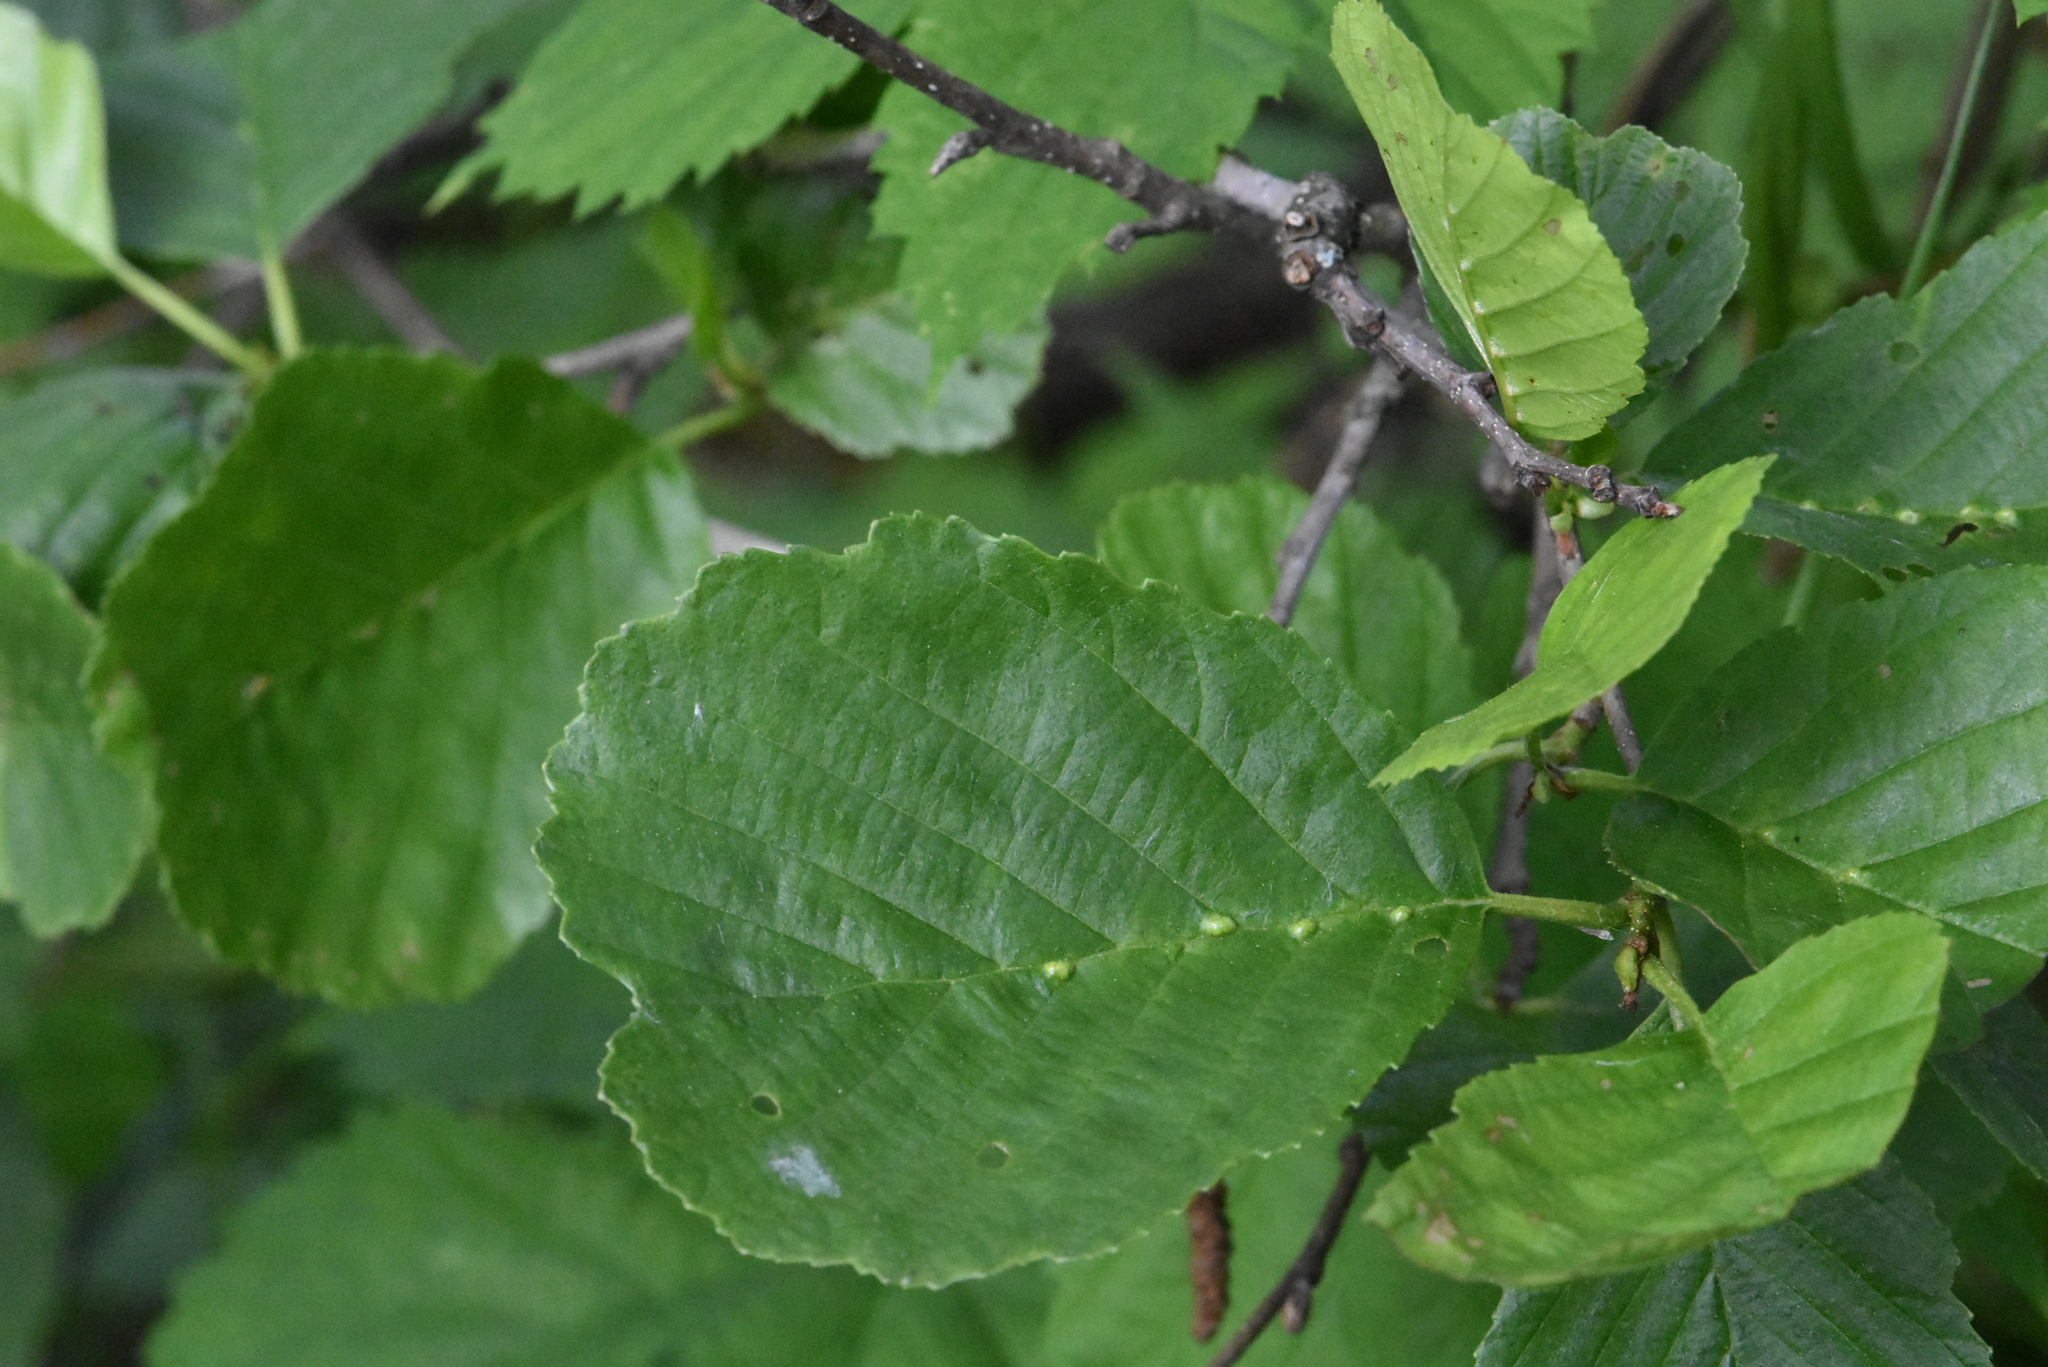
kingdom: Plantae
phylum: Tracheophyta
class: Magnoliopsida
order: Fagales
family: Betulaceae
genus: Alnus
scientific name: Alnus glutinosa
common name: Black alder
